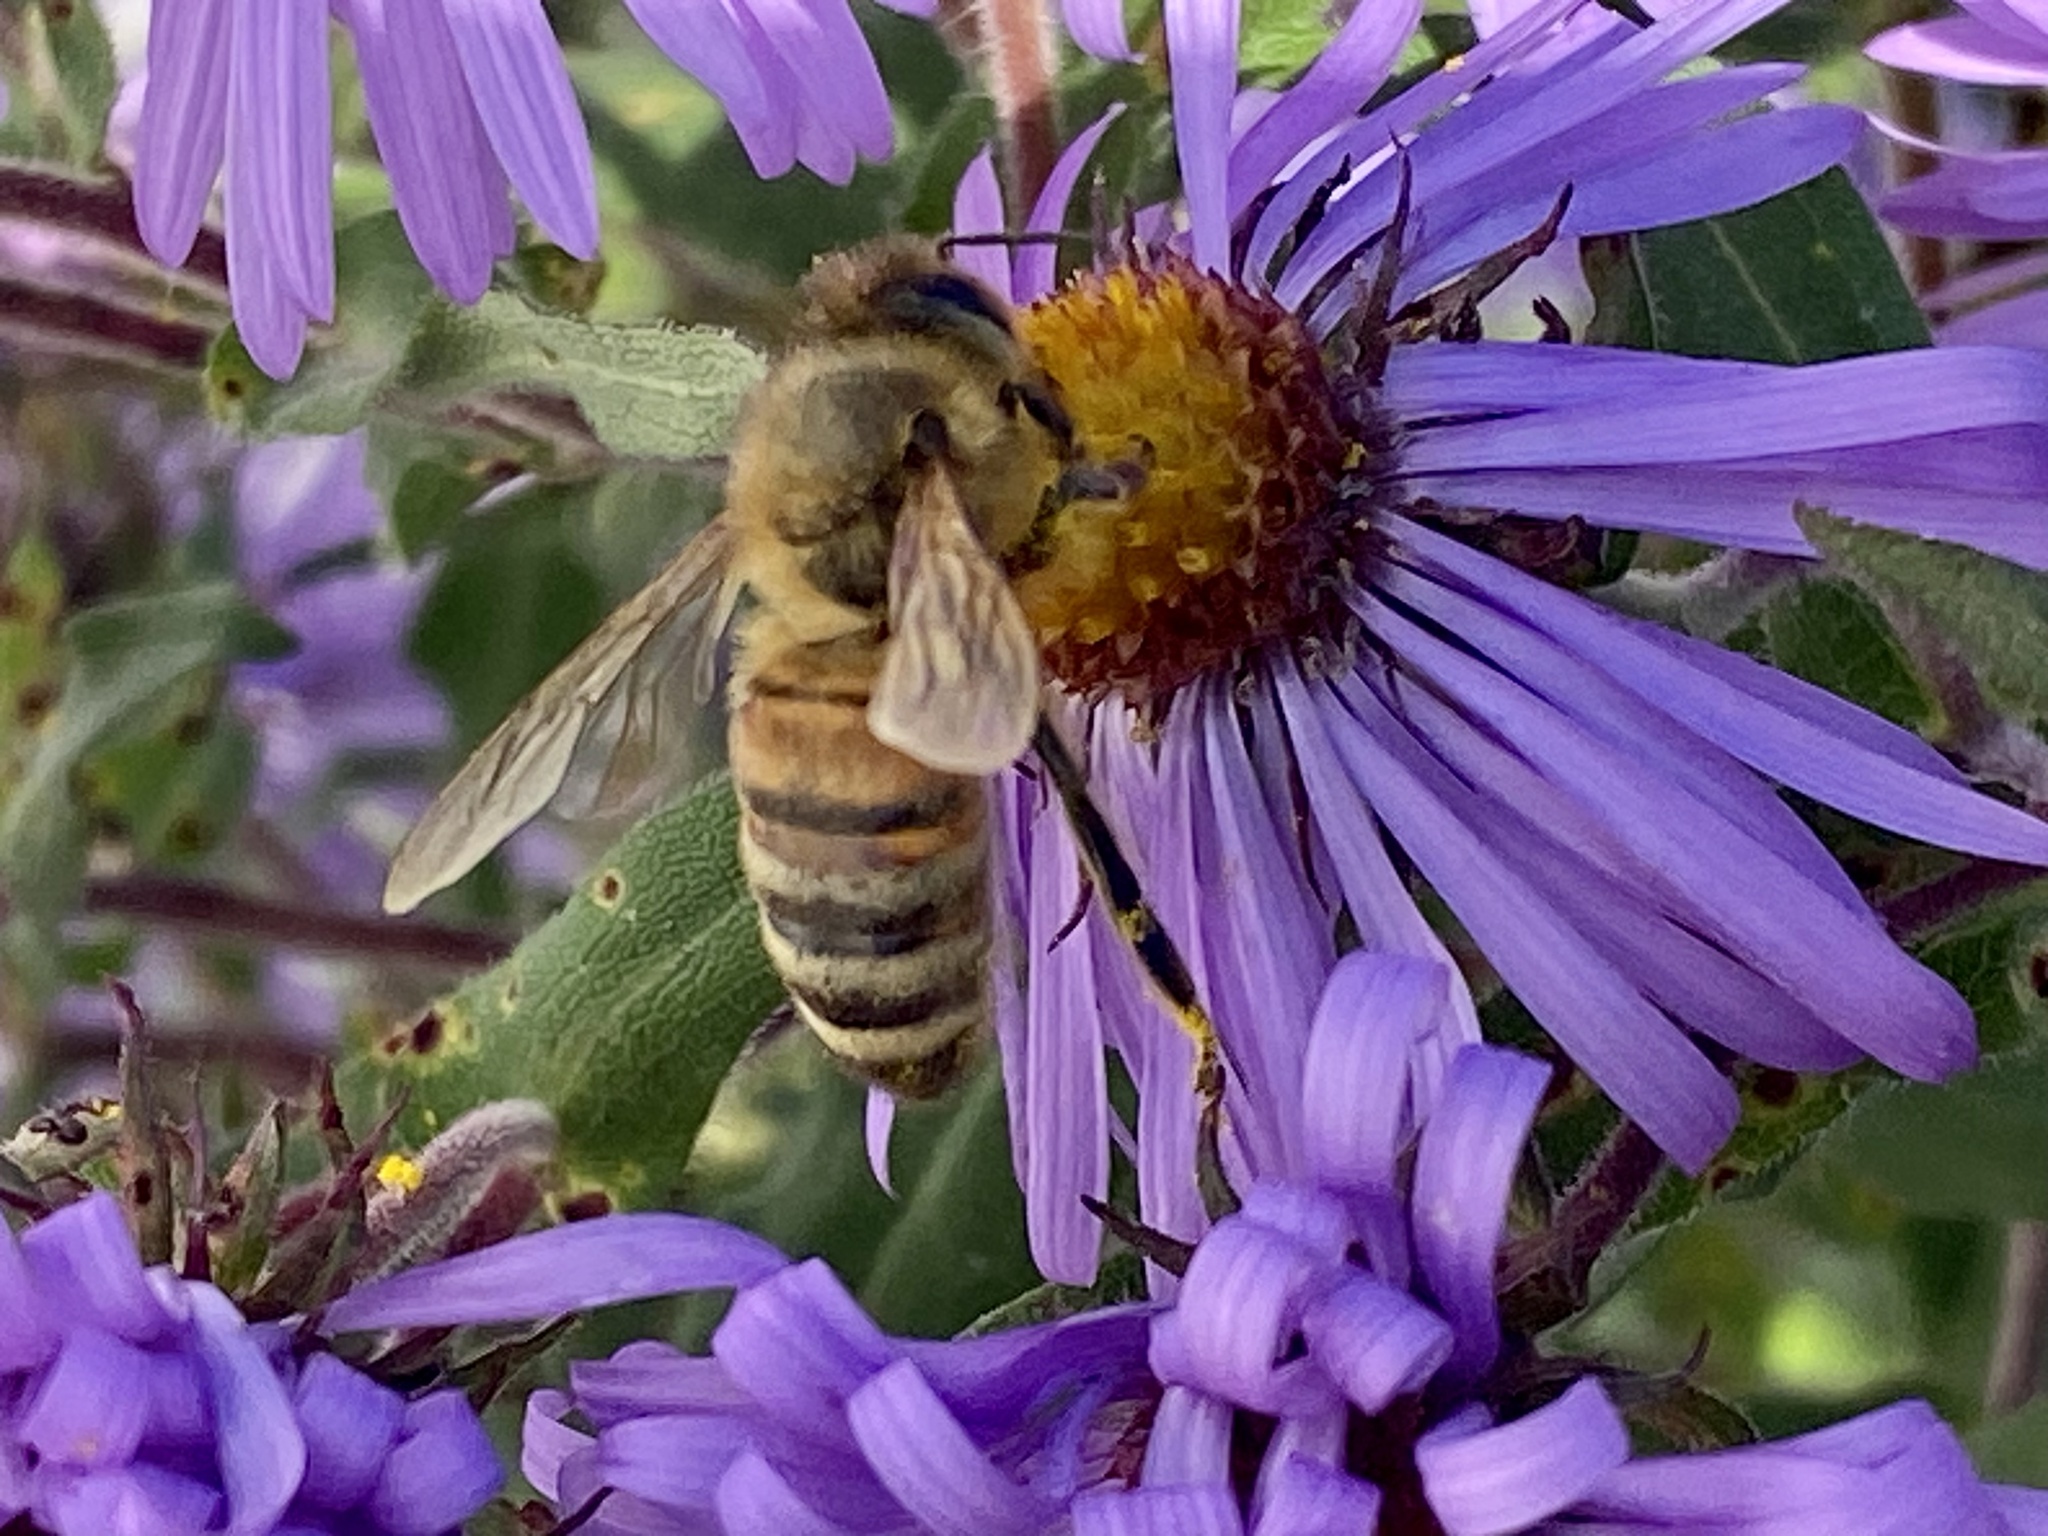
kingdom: Animalia
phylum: Arthropoda
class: Insecta
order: Hymenoptera
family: Apidae
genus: Apis
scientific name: Apis mellifera
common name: Honey bee
